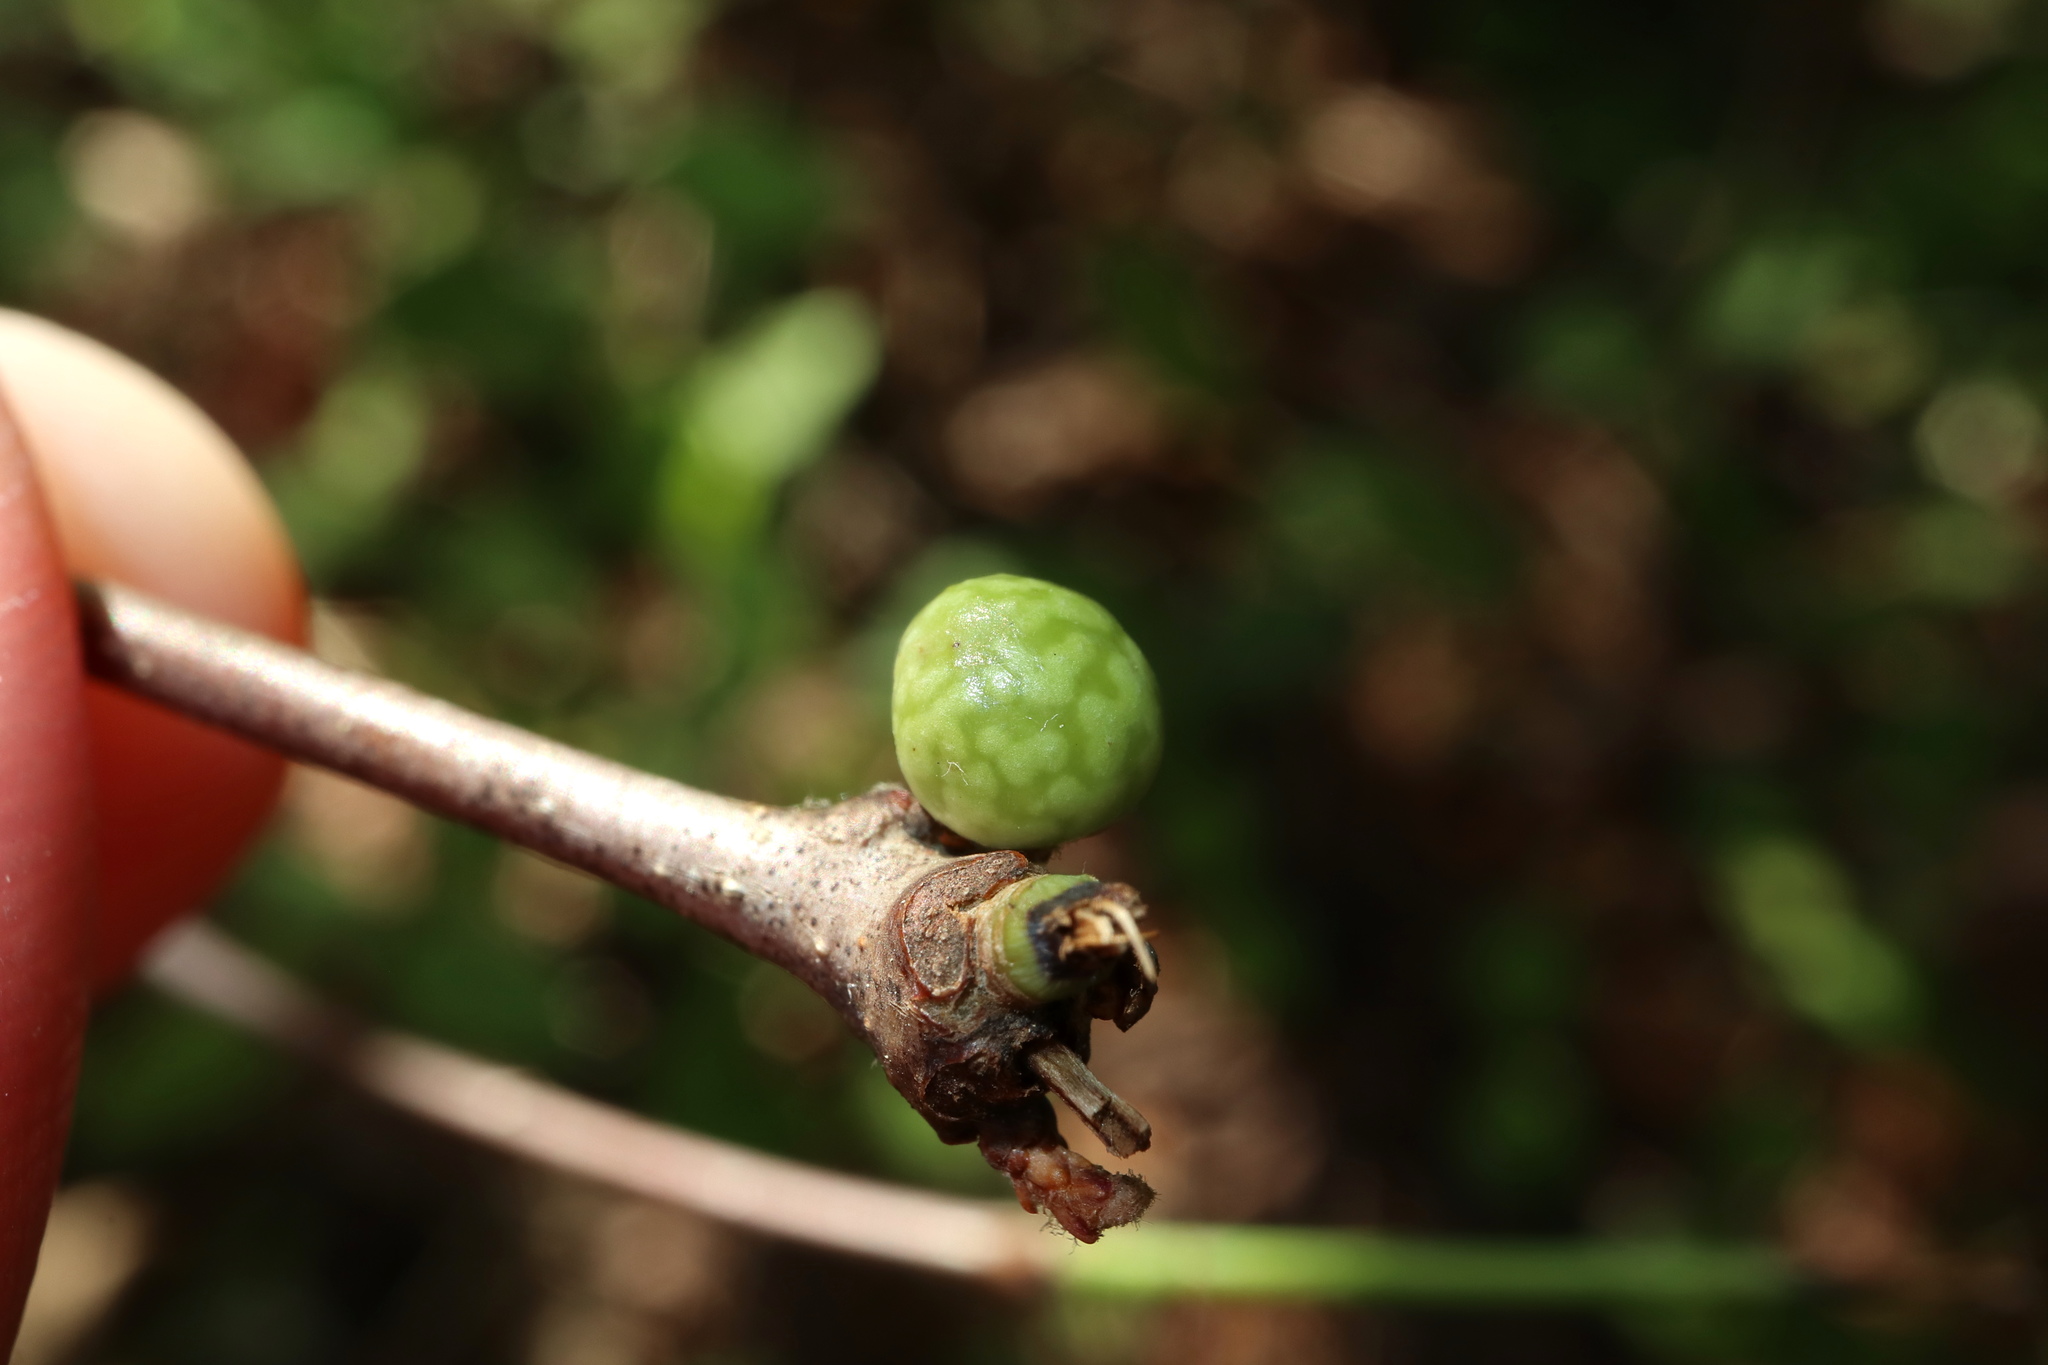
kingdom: Animalia
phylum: Arthropoda
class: Insecta
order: Hymenoptera
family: Cynipidae
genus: Andricus
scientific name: Andricus
